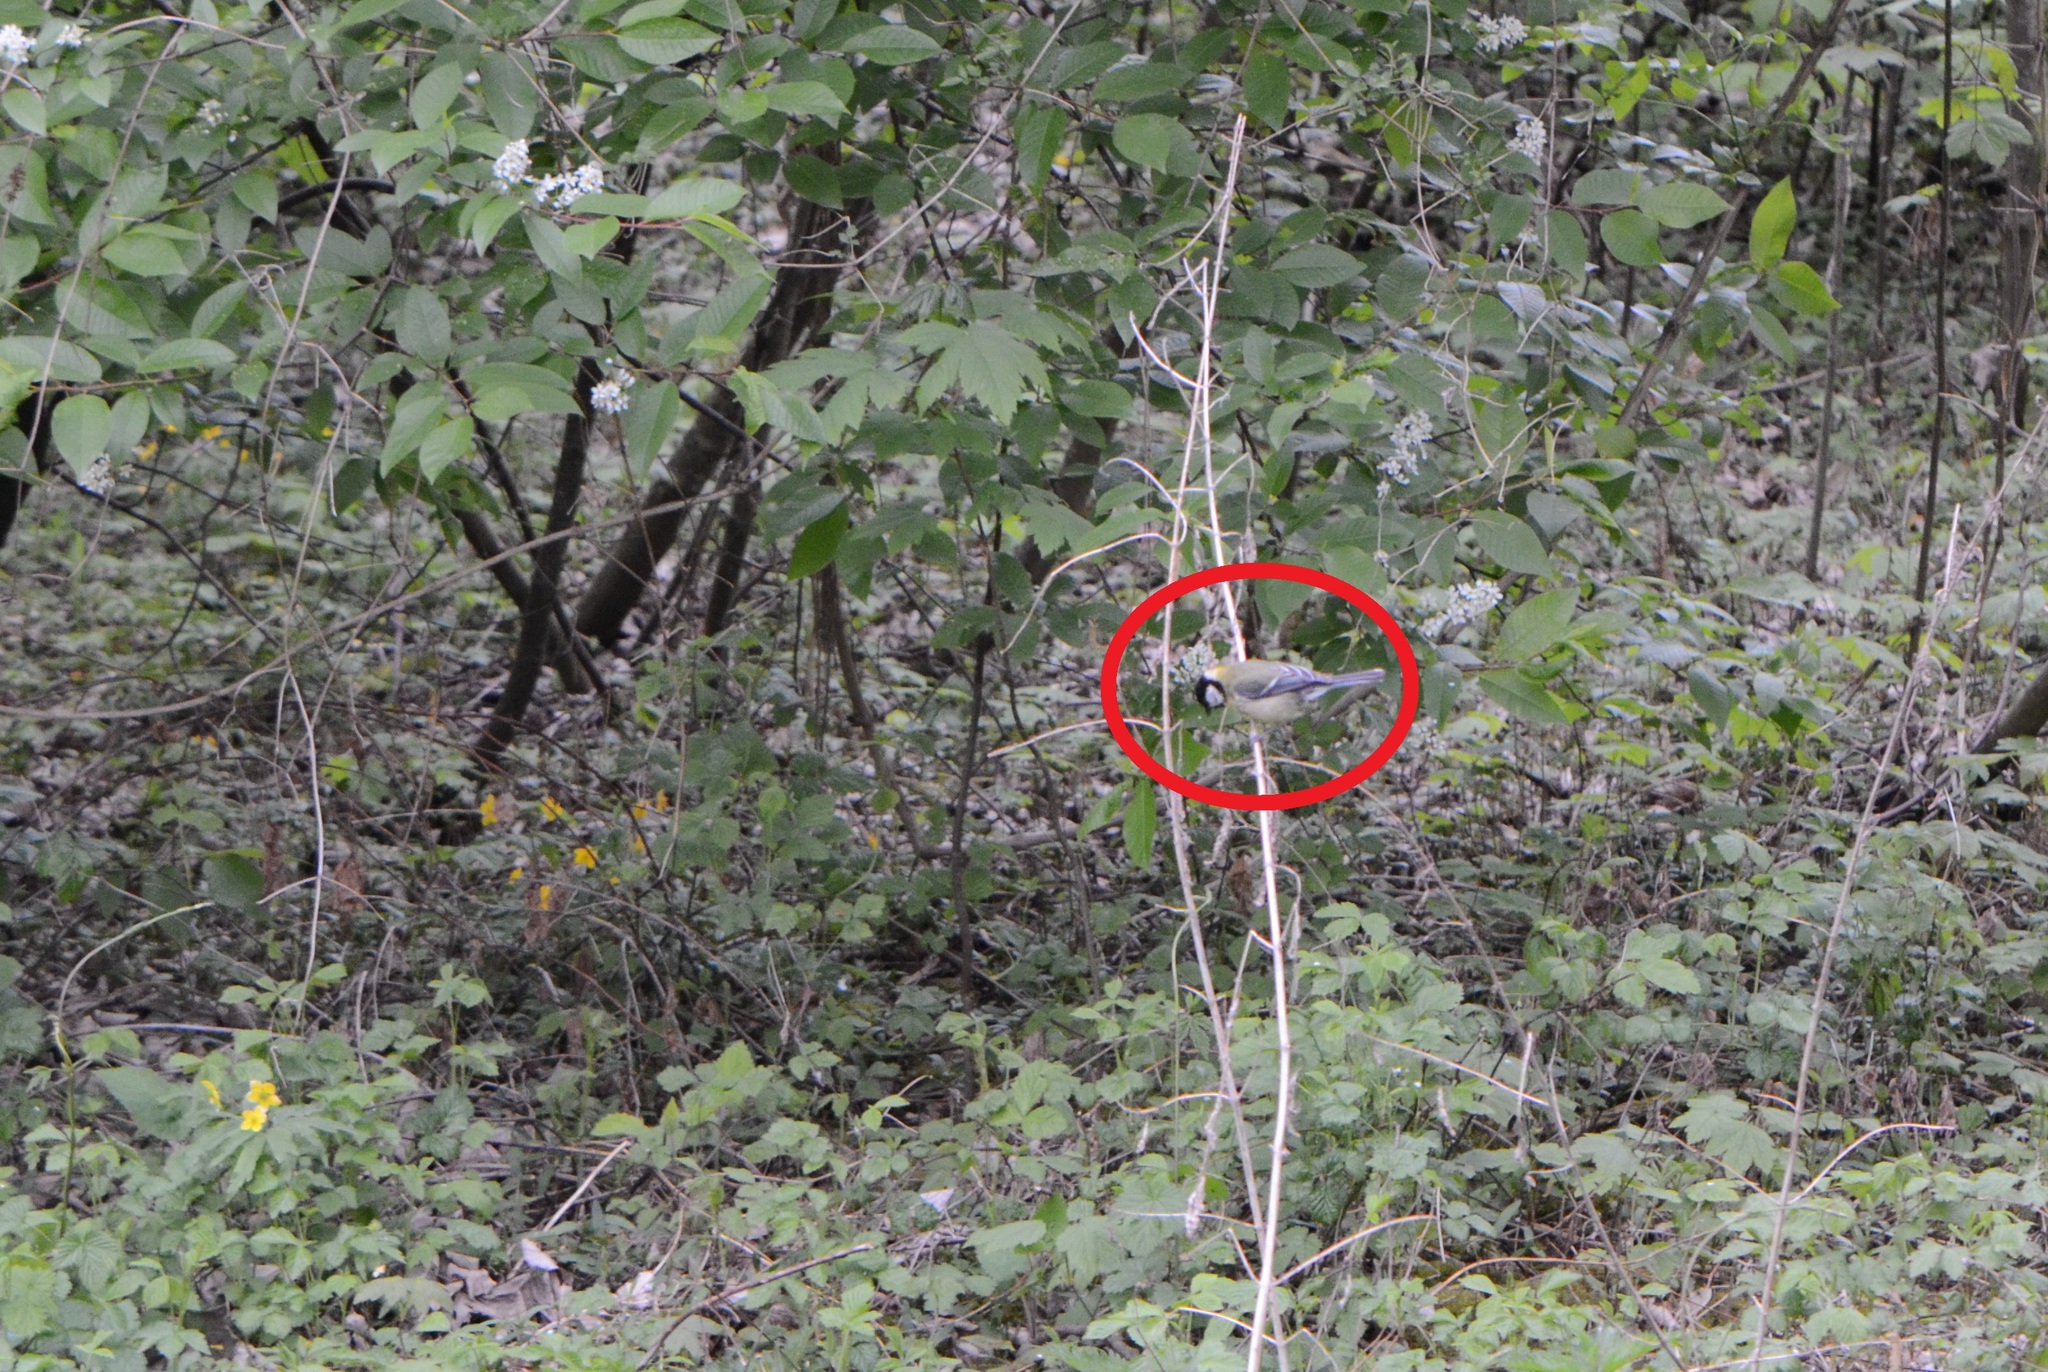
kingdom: Animalia
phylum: Chordata
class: Aves
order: Passeriformes
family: Paridae
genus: Parus
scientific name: Parus major
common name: Great tit
